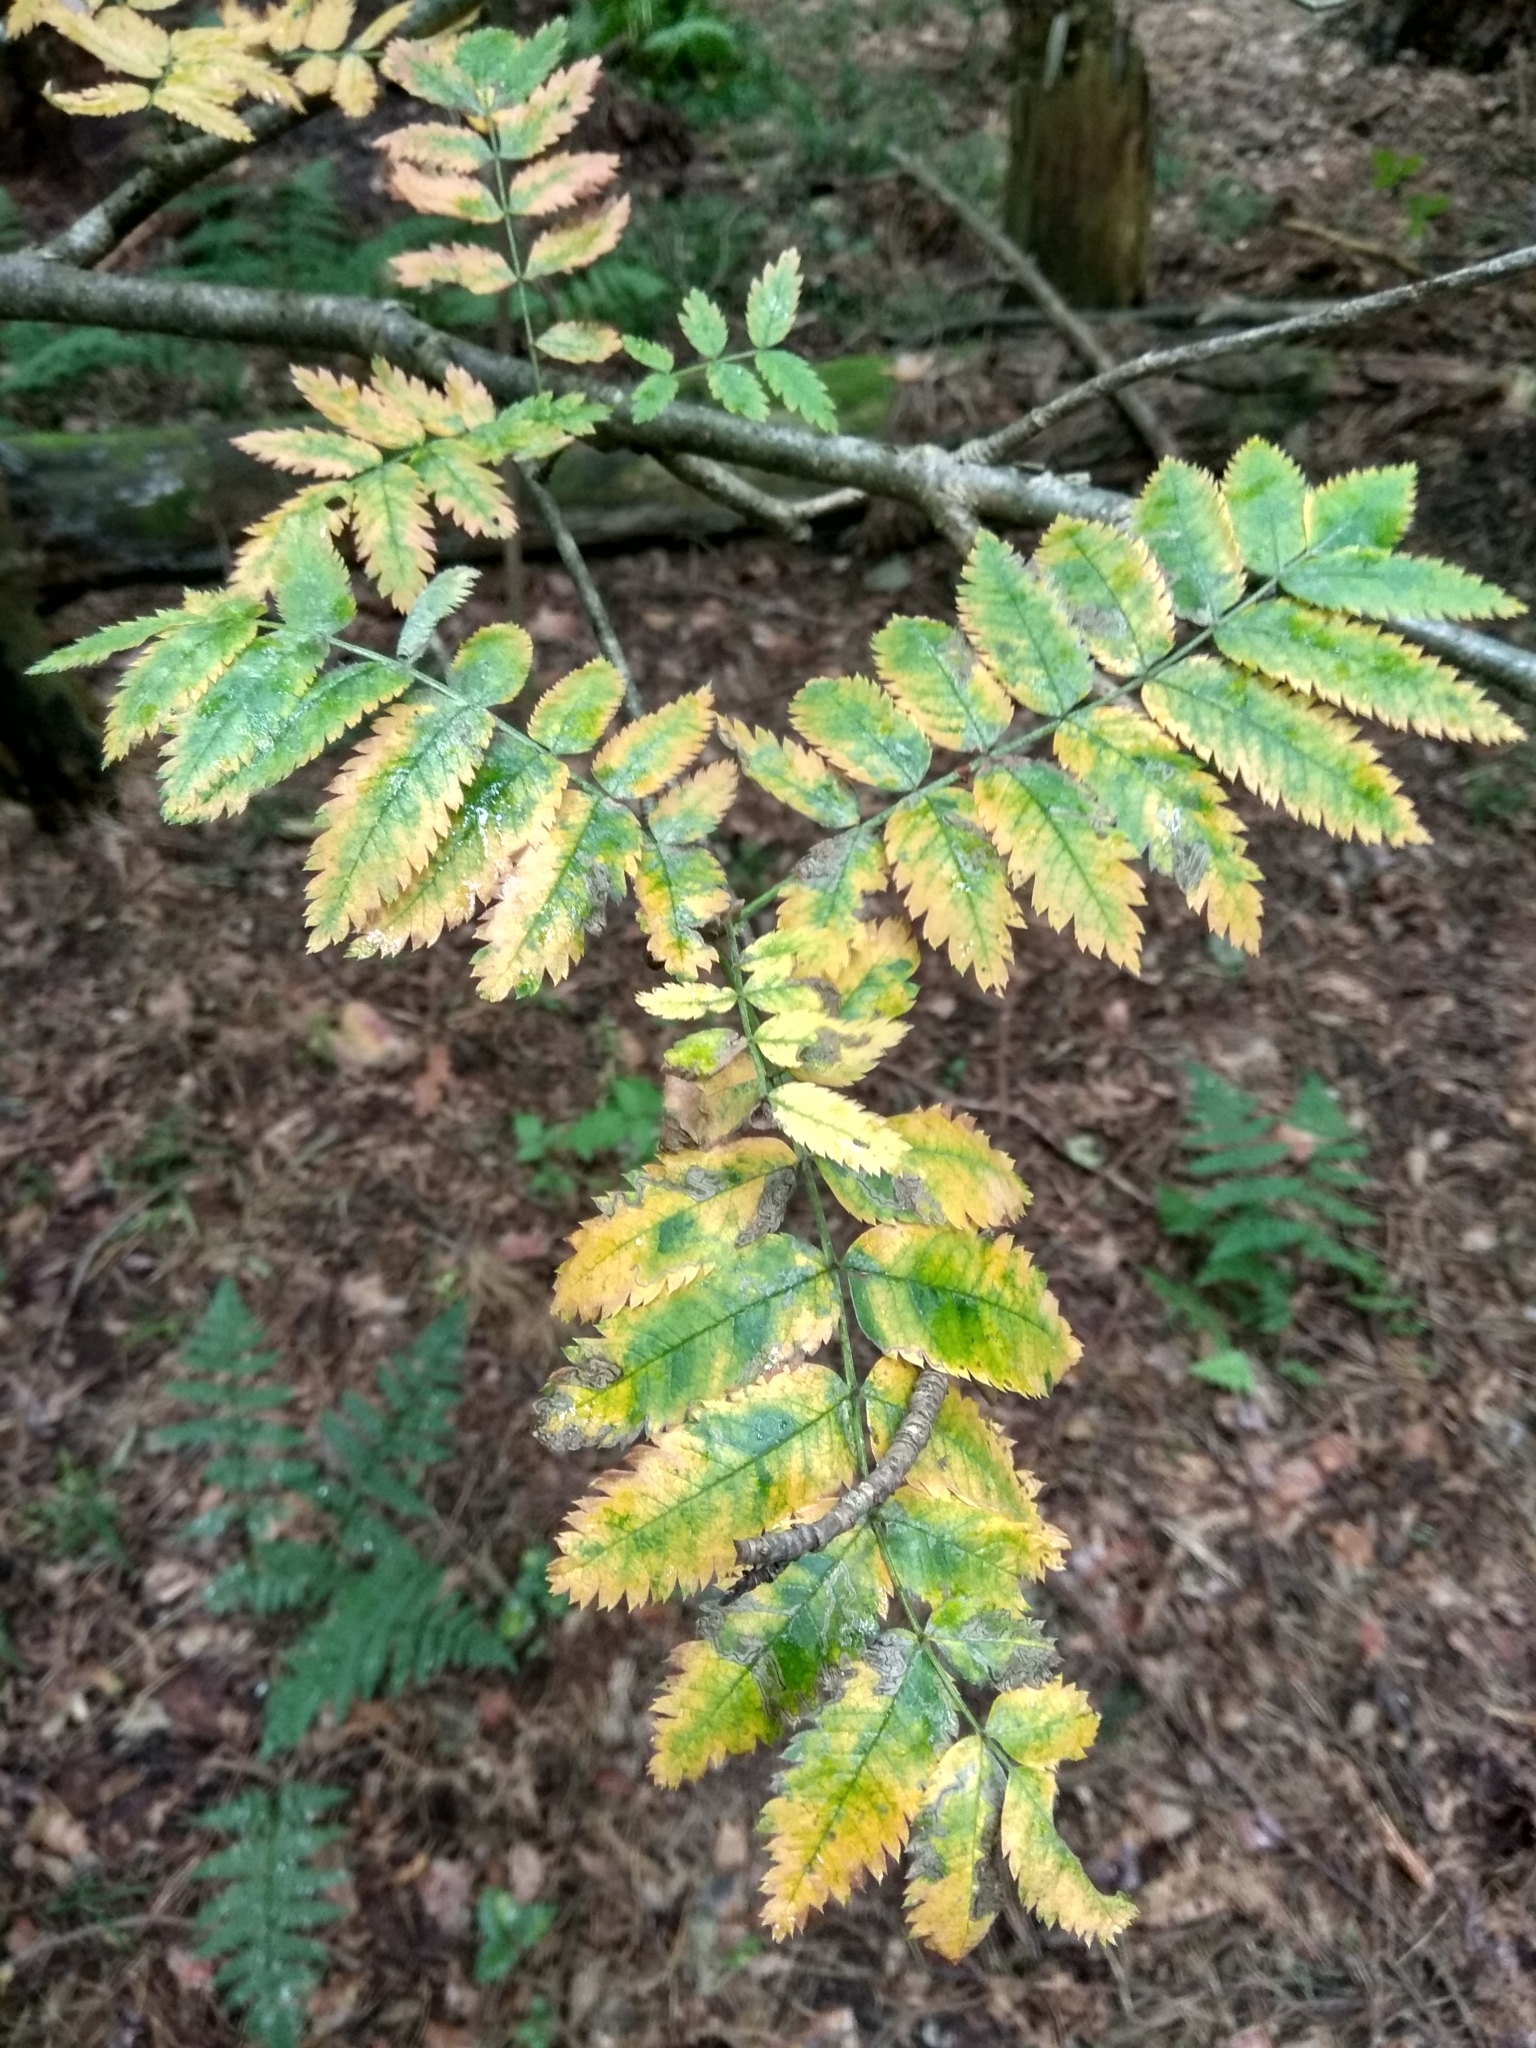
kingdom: Plantae
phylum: Tracheophyta
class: Magnoliopsida
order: Rosales
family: Rosaceae
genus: Sorbus
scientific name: Sorbus aucuparia
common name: Rowan
